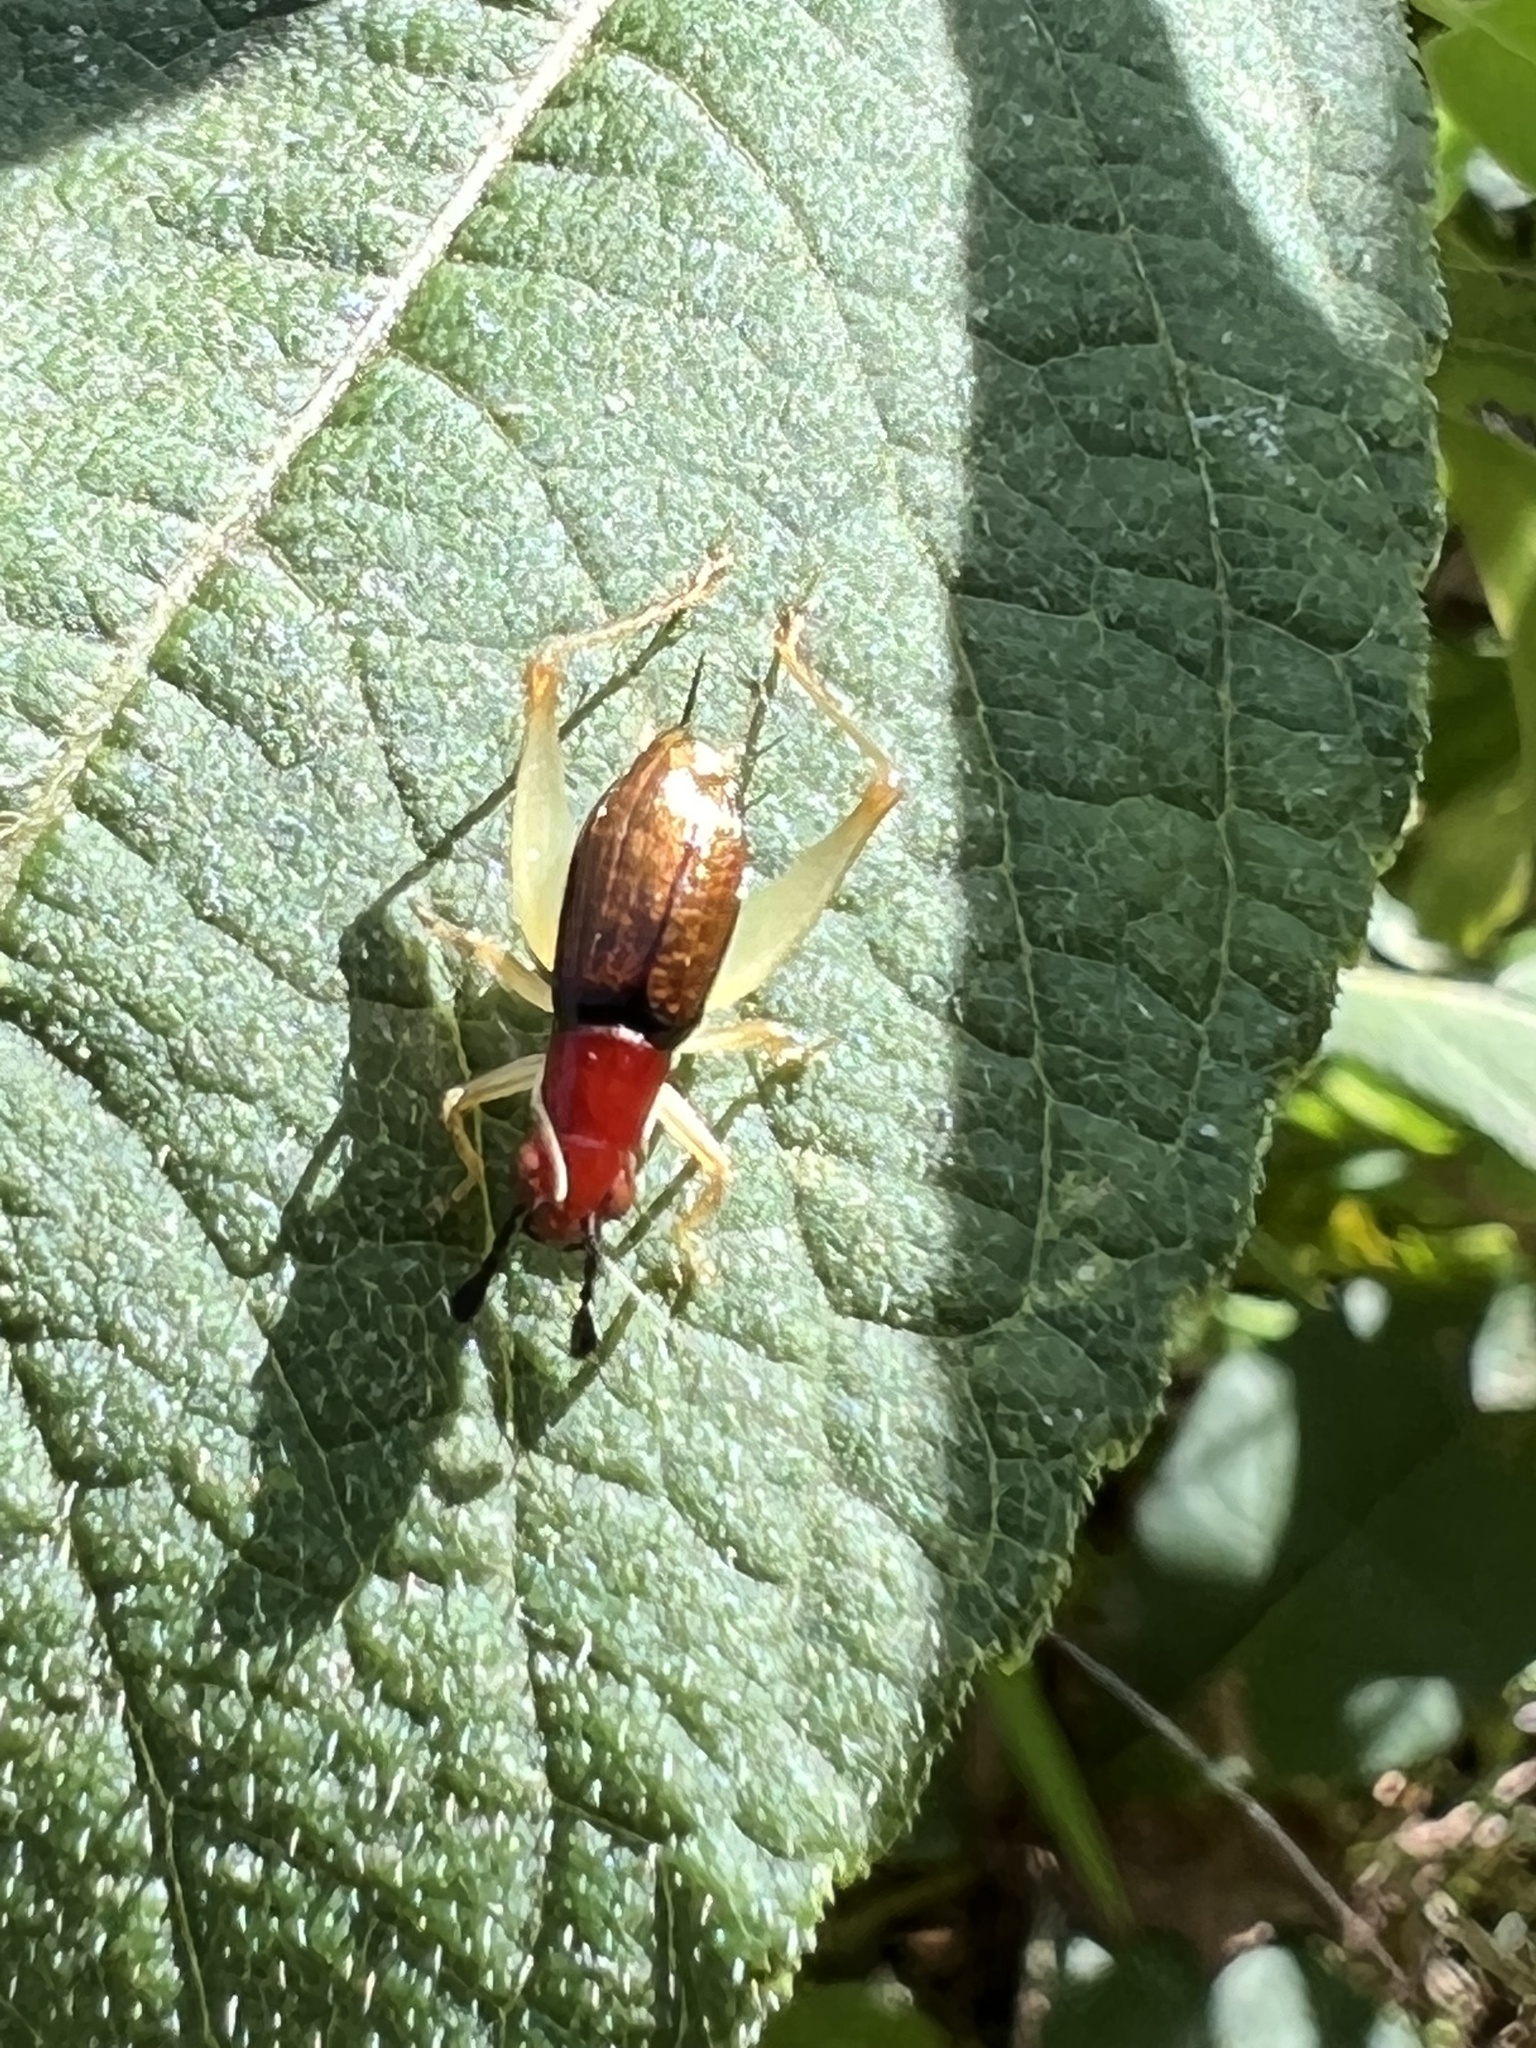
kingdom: Animalia
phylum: Arthropoda
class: Insecta
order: Orthoptera
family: Trigonidiidae
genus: Phyllopalpus
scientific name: Phyllopalpus pulchellus
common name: Handsome trig
